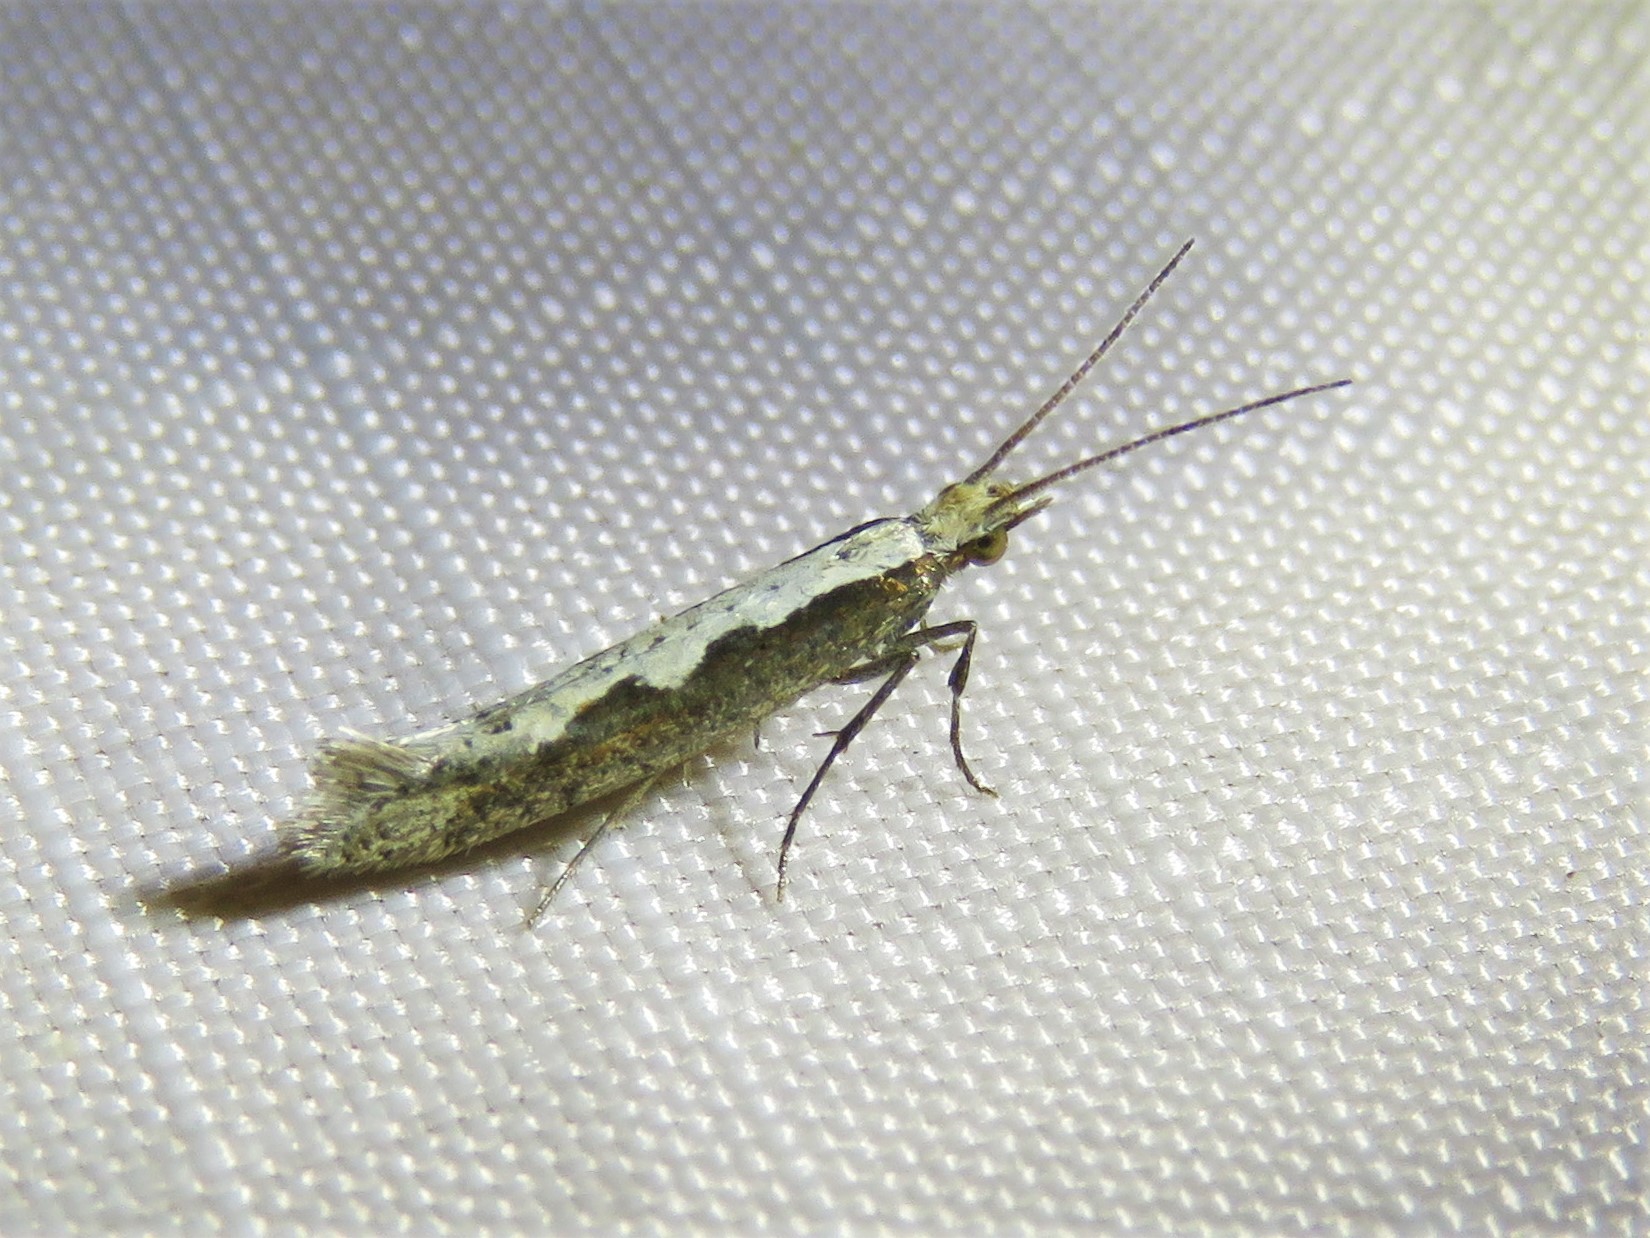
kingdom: Animalia
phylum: Arthropoda
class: Insecta
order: Lepidoptera
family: Plutellidae
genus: Plutella
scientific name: Plutella xylostella
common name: Diamond-back moth
